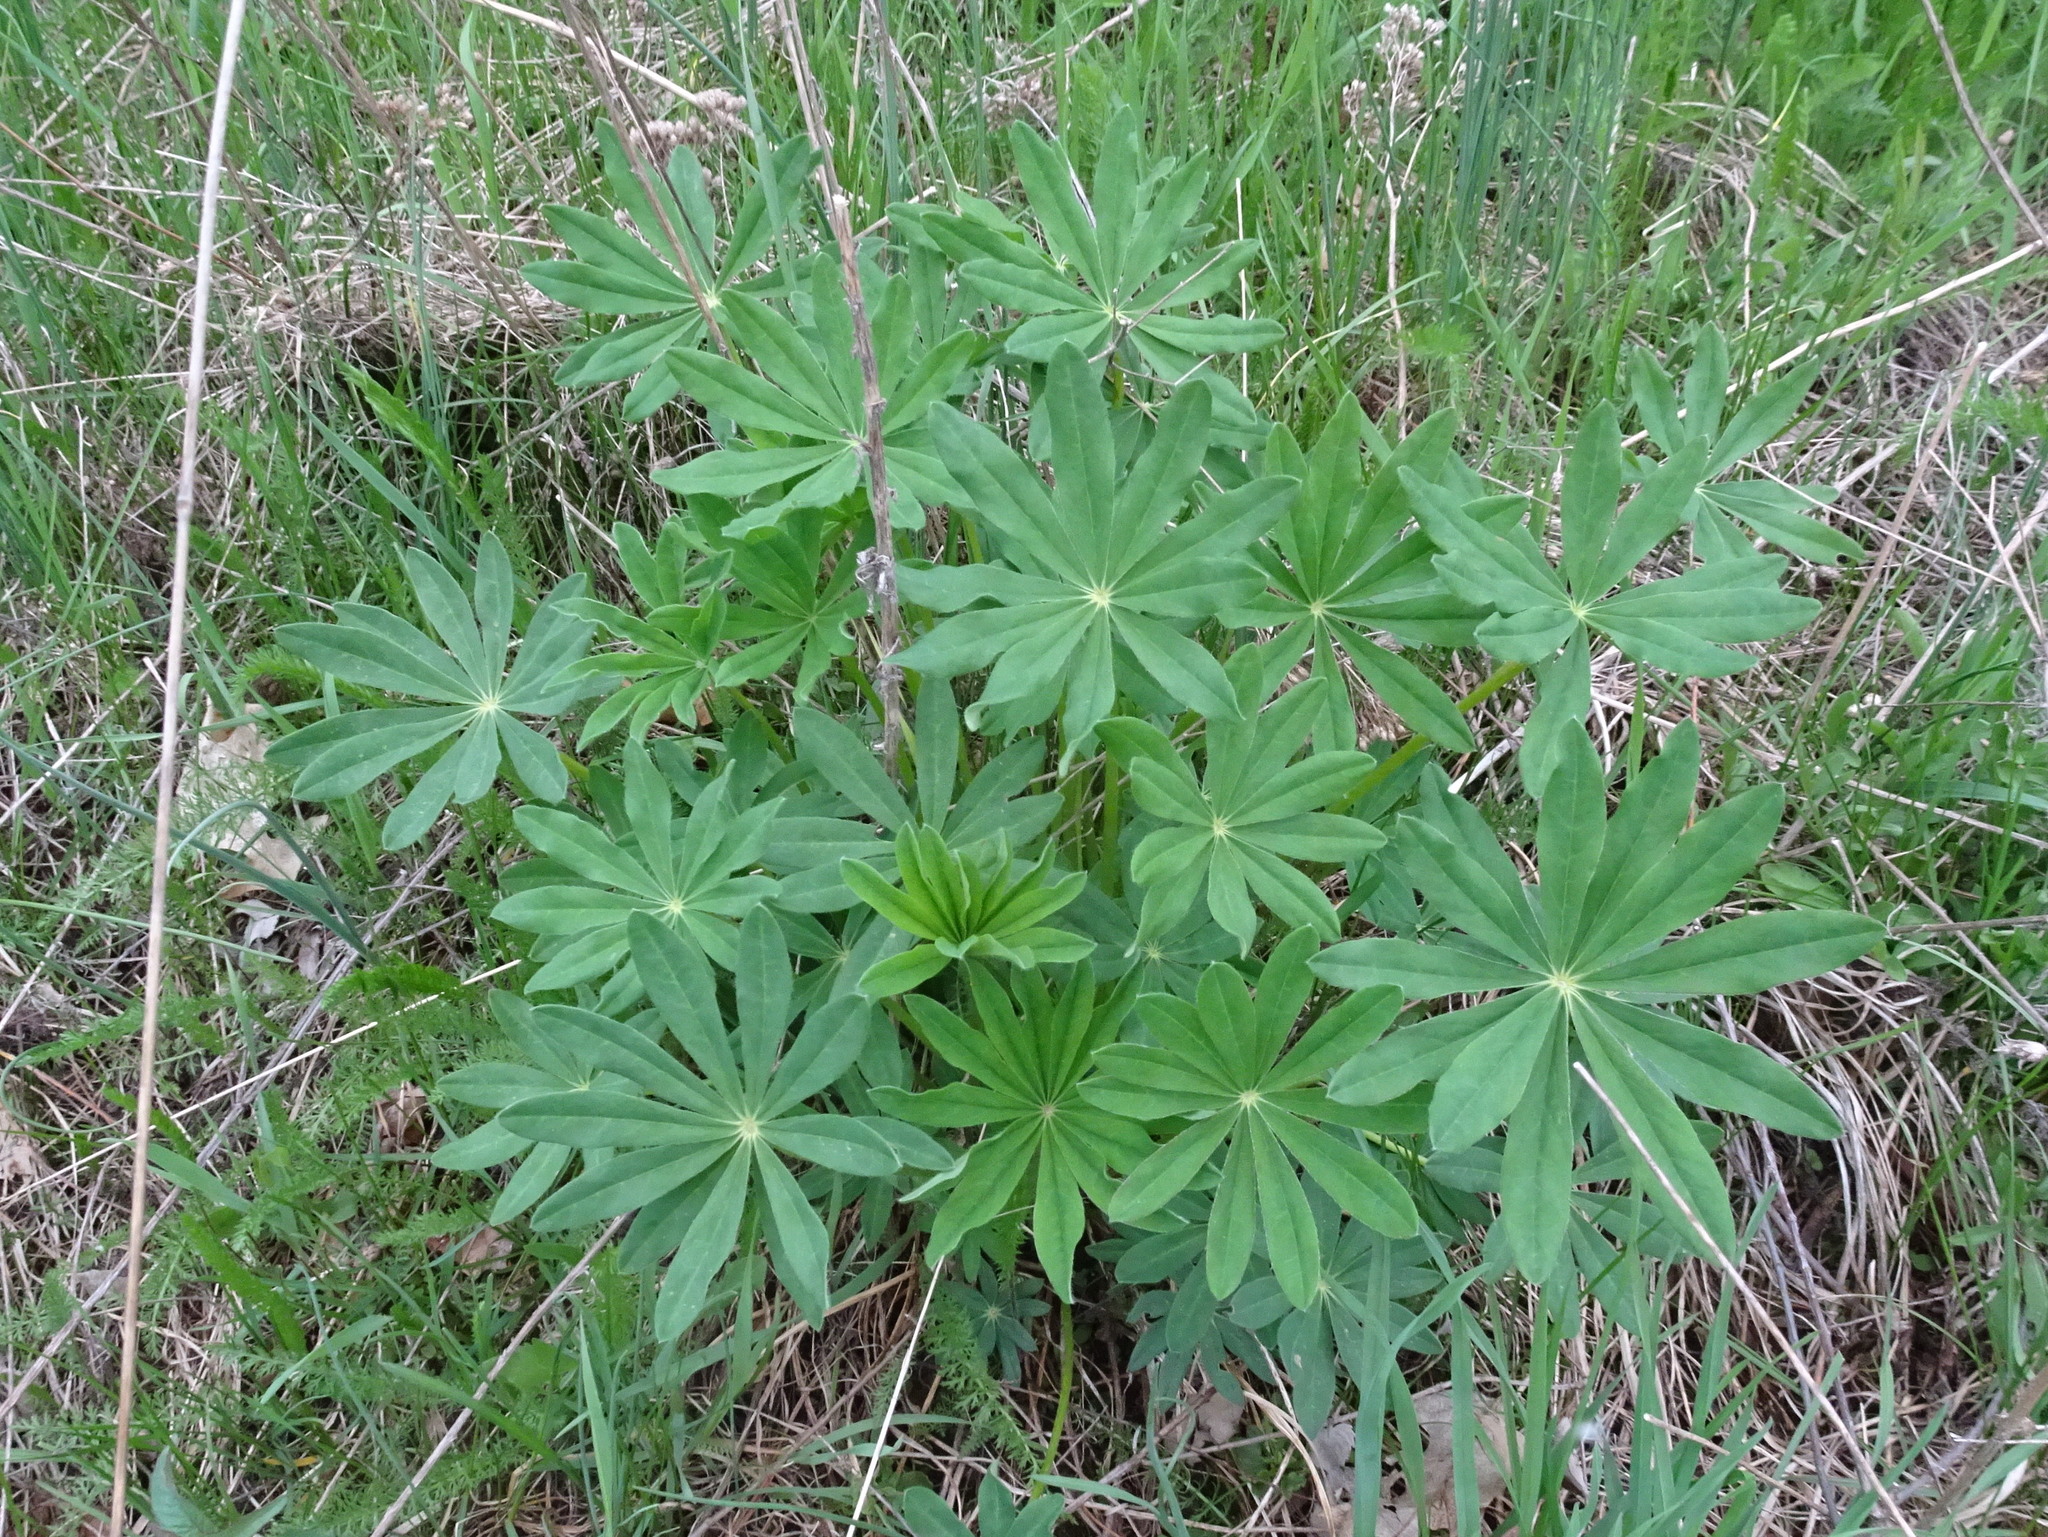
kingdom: Plantae
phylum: Tracheophyta
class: Magnoliopsida
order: Fabales
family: Fabaceae
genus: Lupinus
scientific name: Lupinus perennis
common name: Sundial lupine
